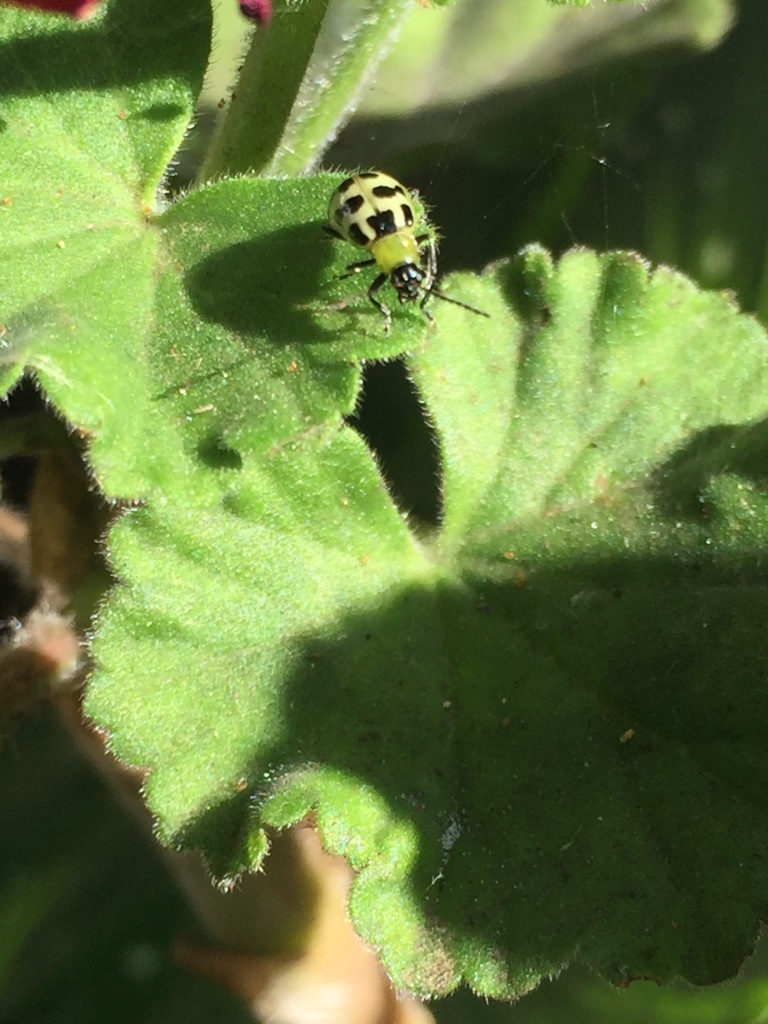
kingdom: Animalia
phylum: Arthropoda
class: Insecta
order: Coleoptera
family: Chrysomelidae
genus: Diabrotica
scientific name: Diabrotica undecimpunctata
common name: Spotted cucumber beetle
